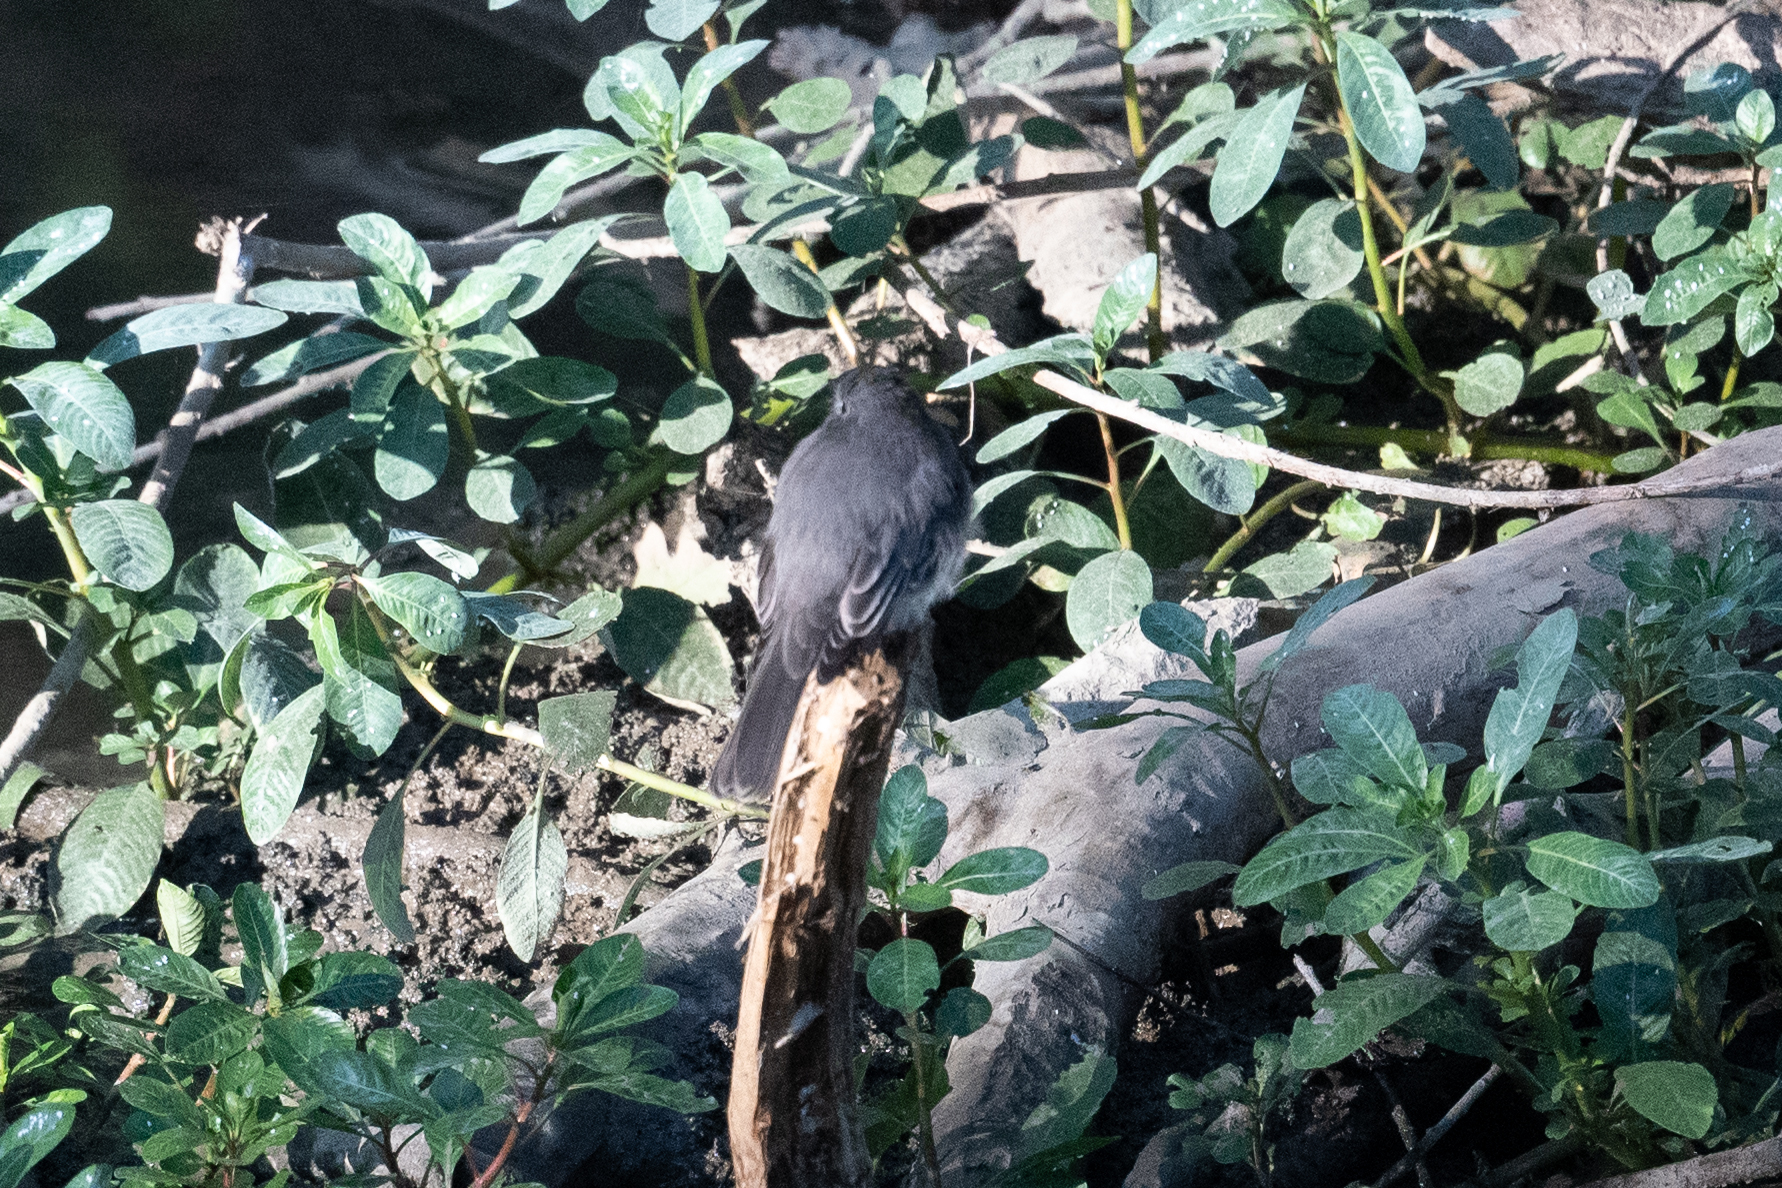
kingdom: Animalia
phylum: Chordata
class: Aves
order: Passeriformes
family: Tyrannidae
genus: Sayornis
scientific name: Sayornis nigricans
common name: Black phoebe
